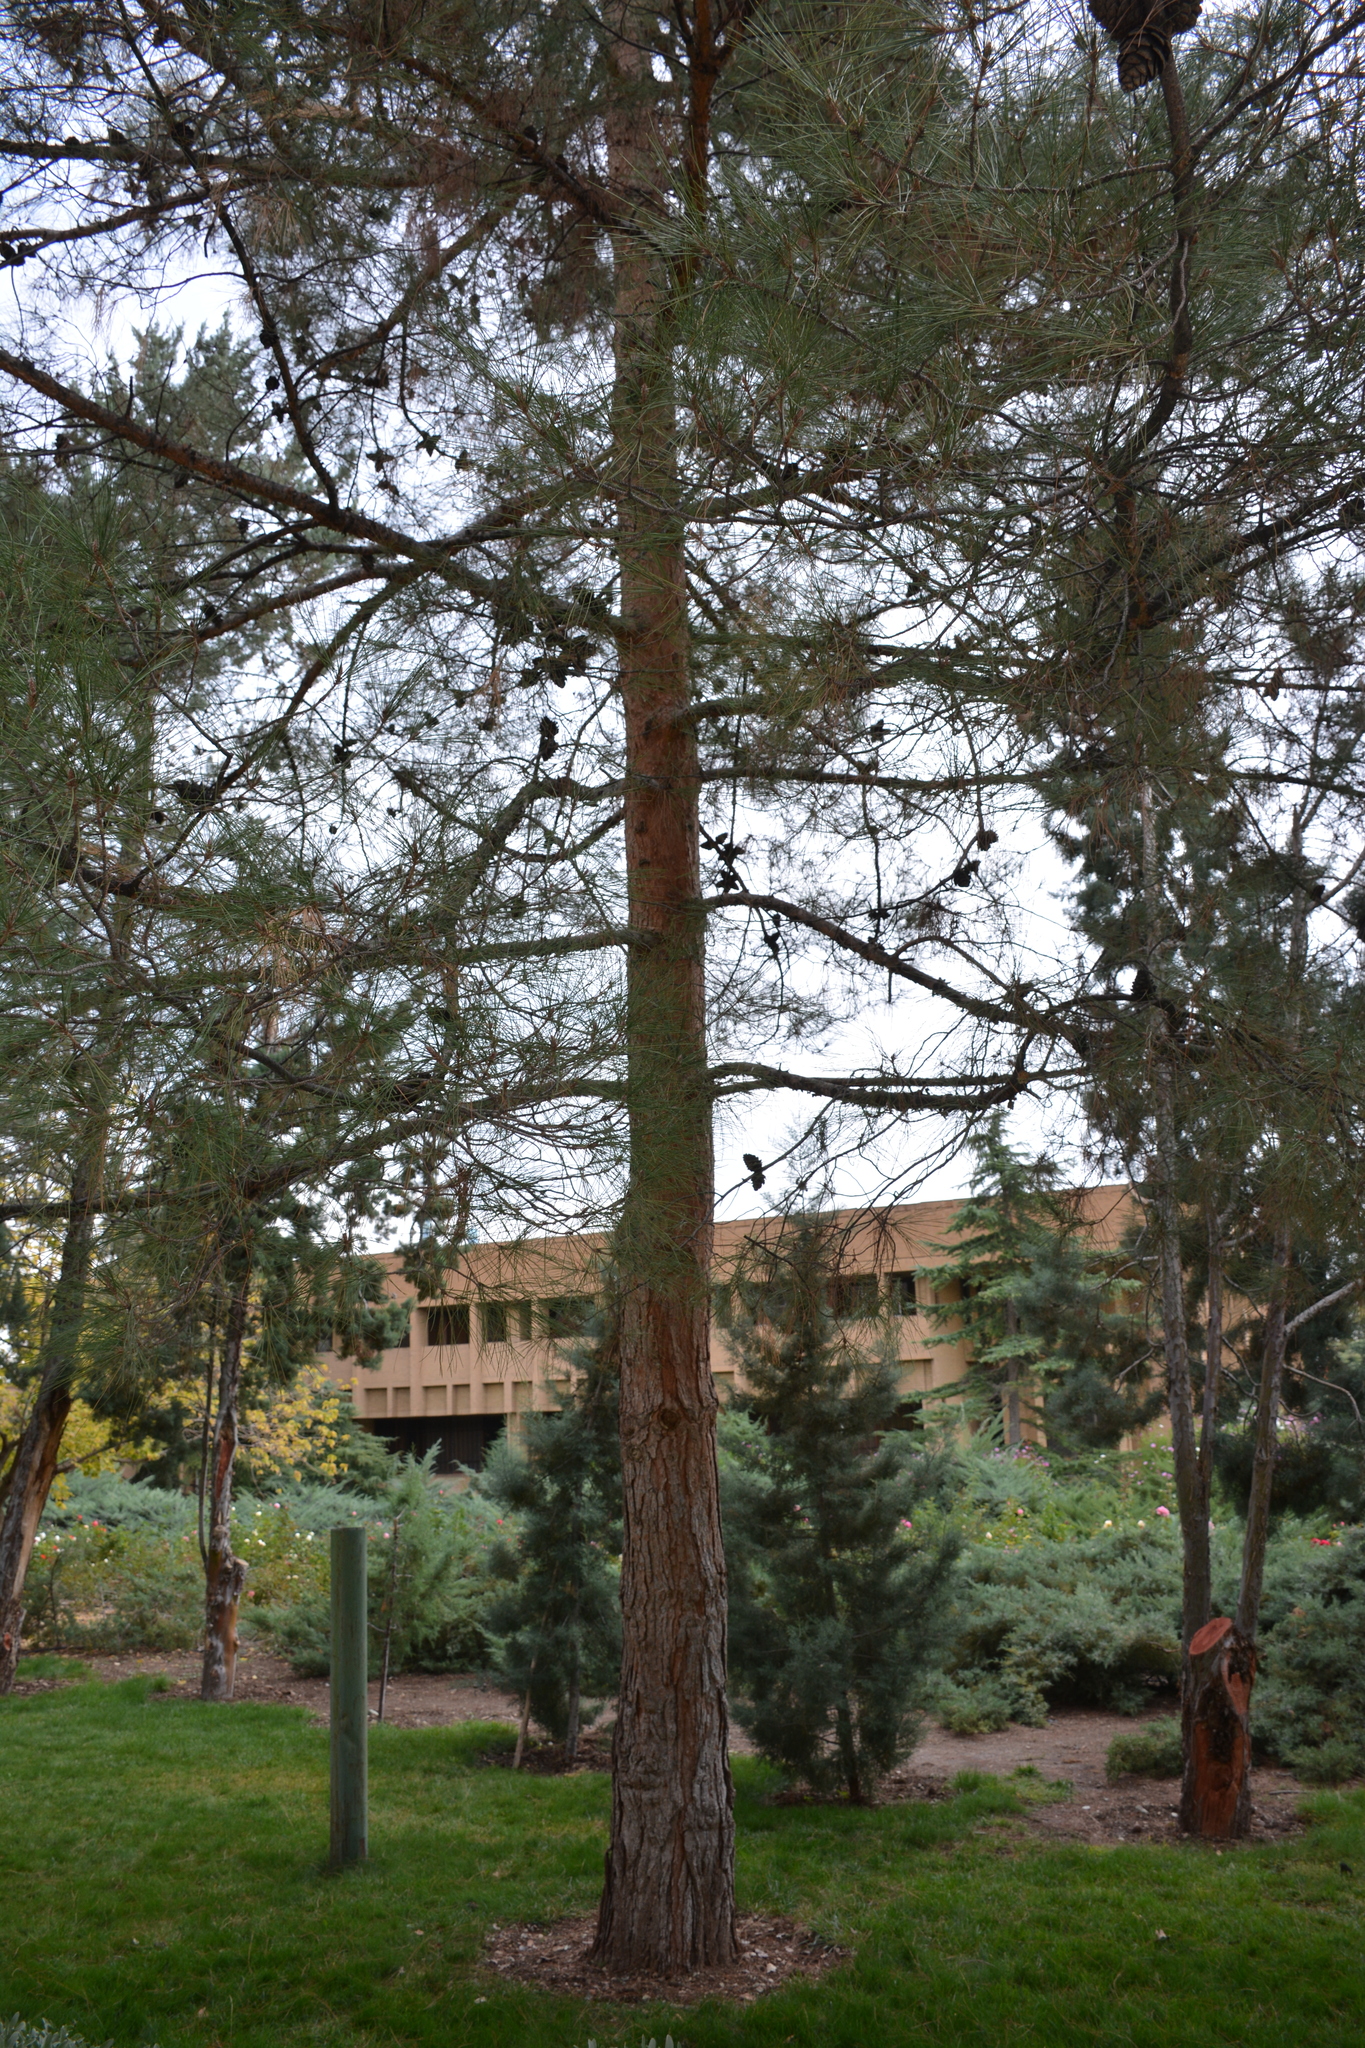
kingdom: Plantae
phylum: Tracheophyta
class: Pinopsida
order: Pinales
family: Pinaceae
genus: Pinus
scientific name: Pinus brutia
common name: Turkish pine
